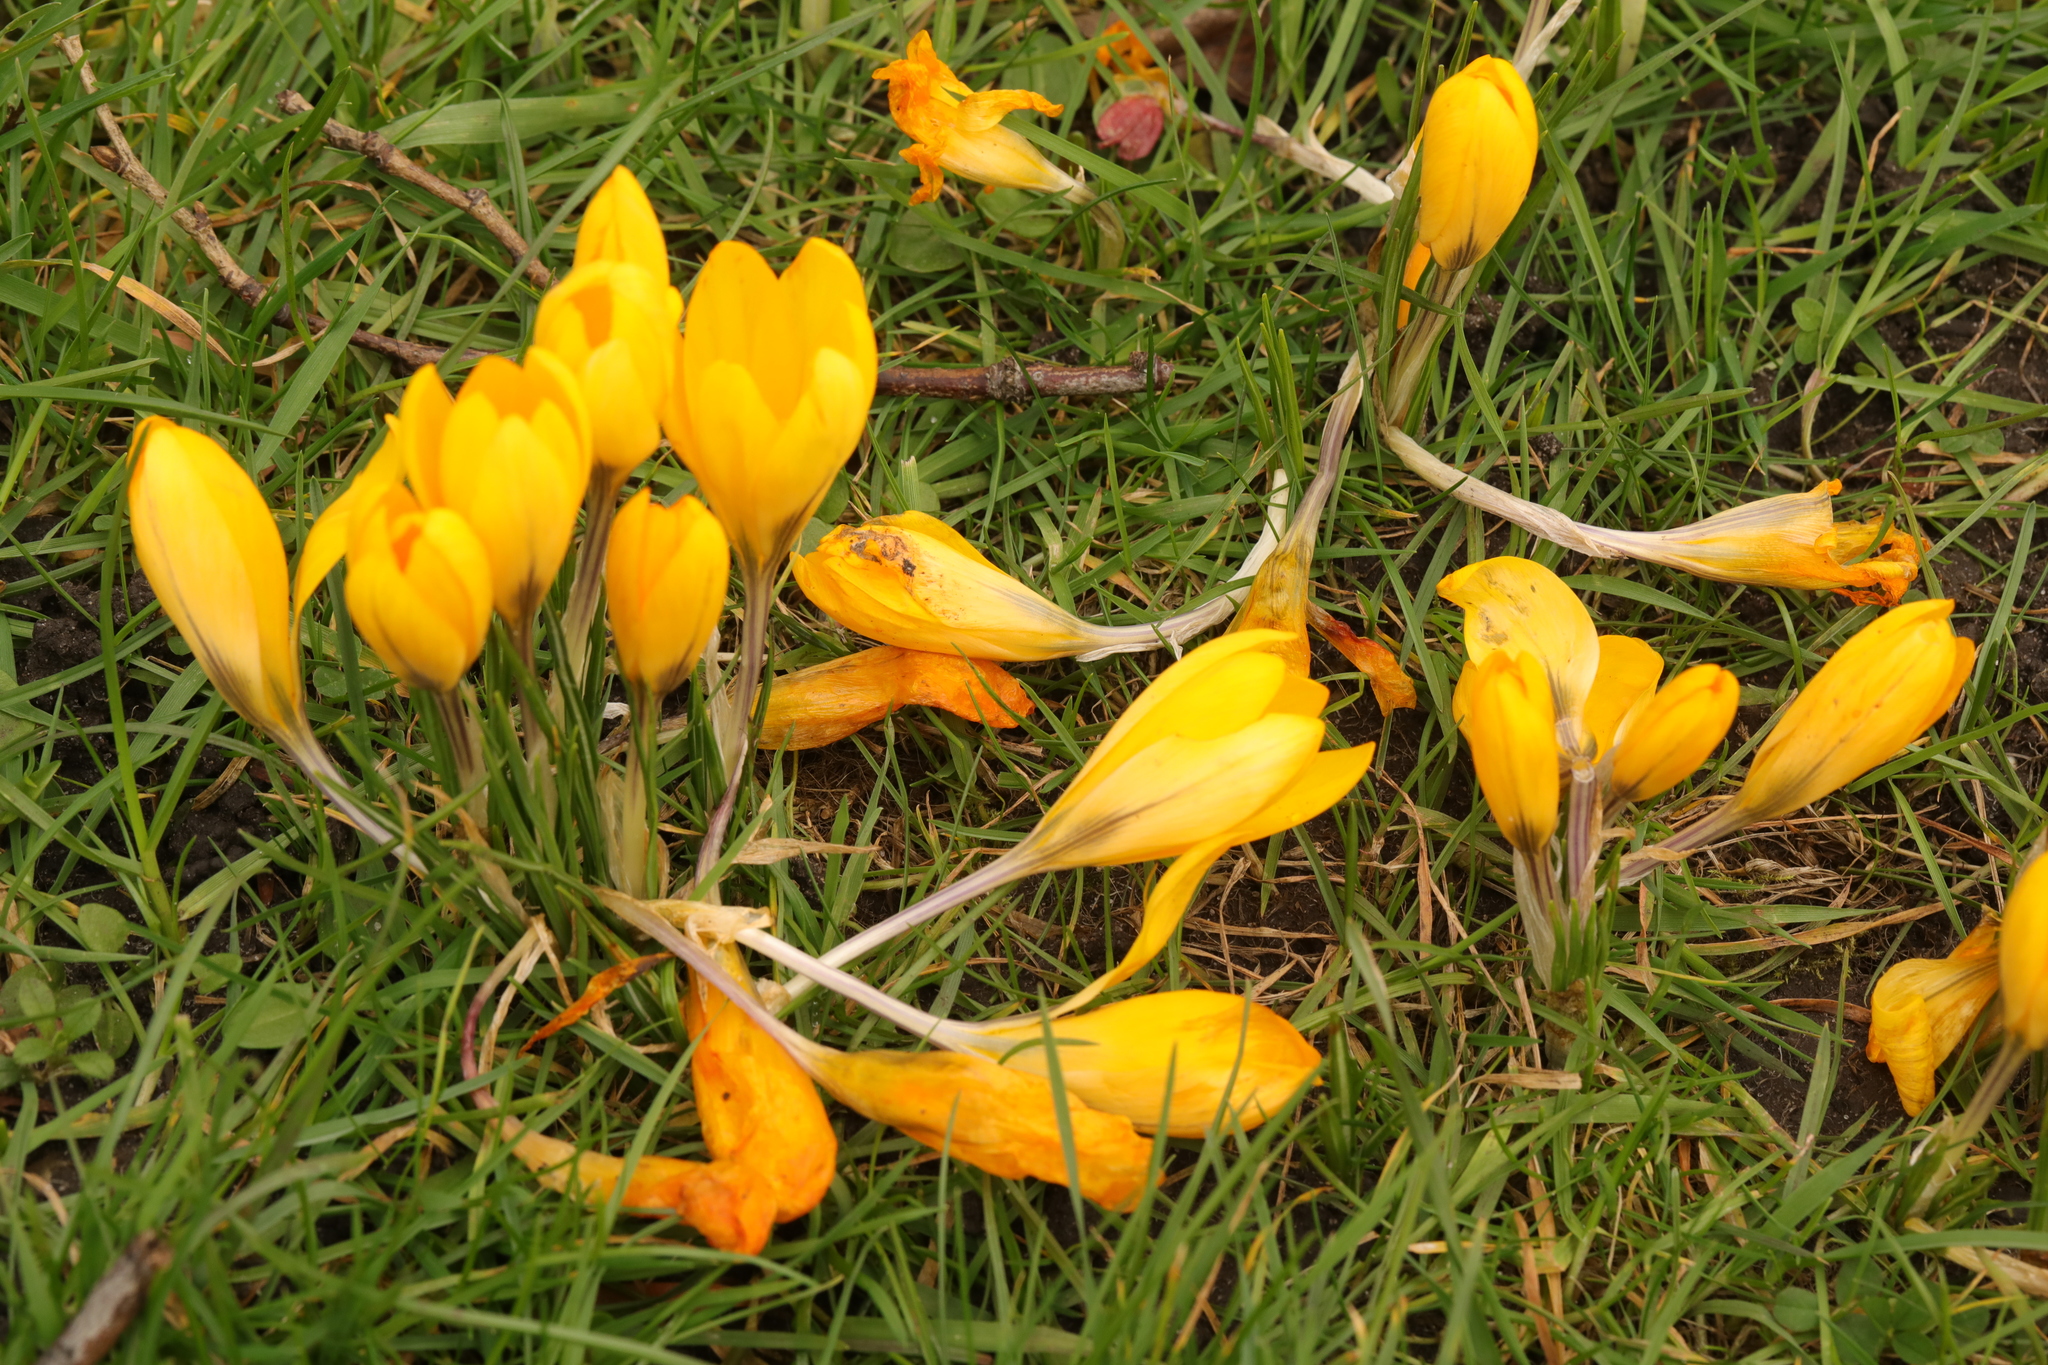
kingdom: Plantae
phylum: Tracheophyta
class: Liliopsida
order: Asparagales
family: Iridaceae
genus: Crocus
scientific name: Crocus luteus
